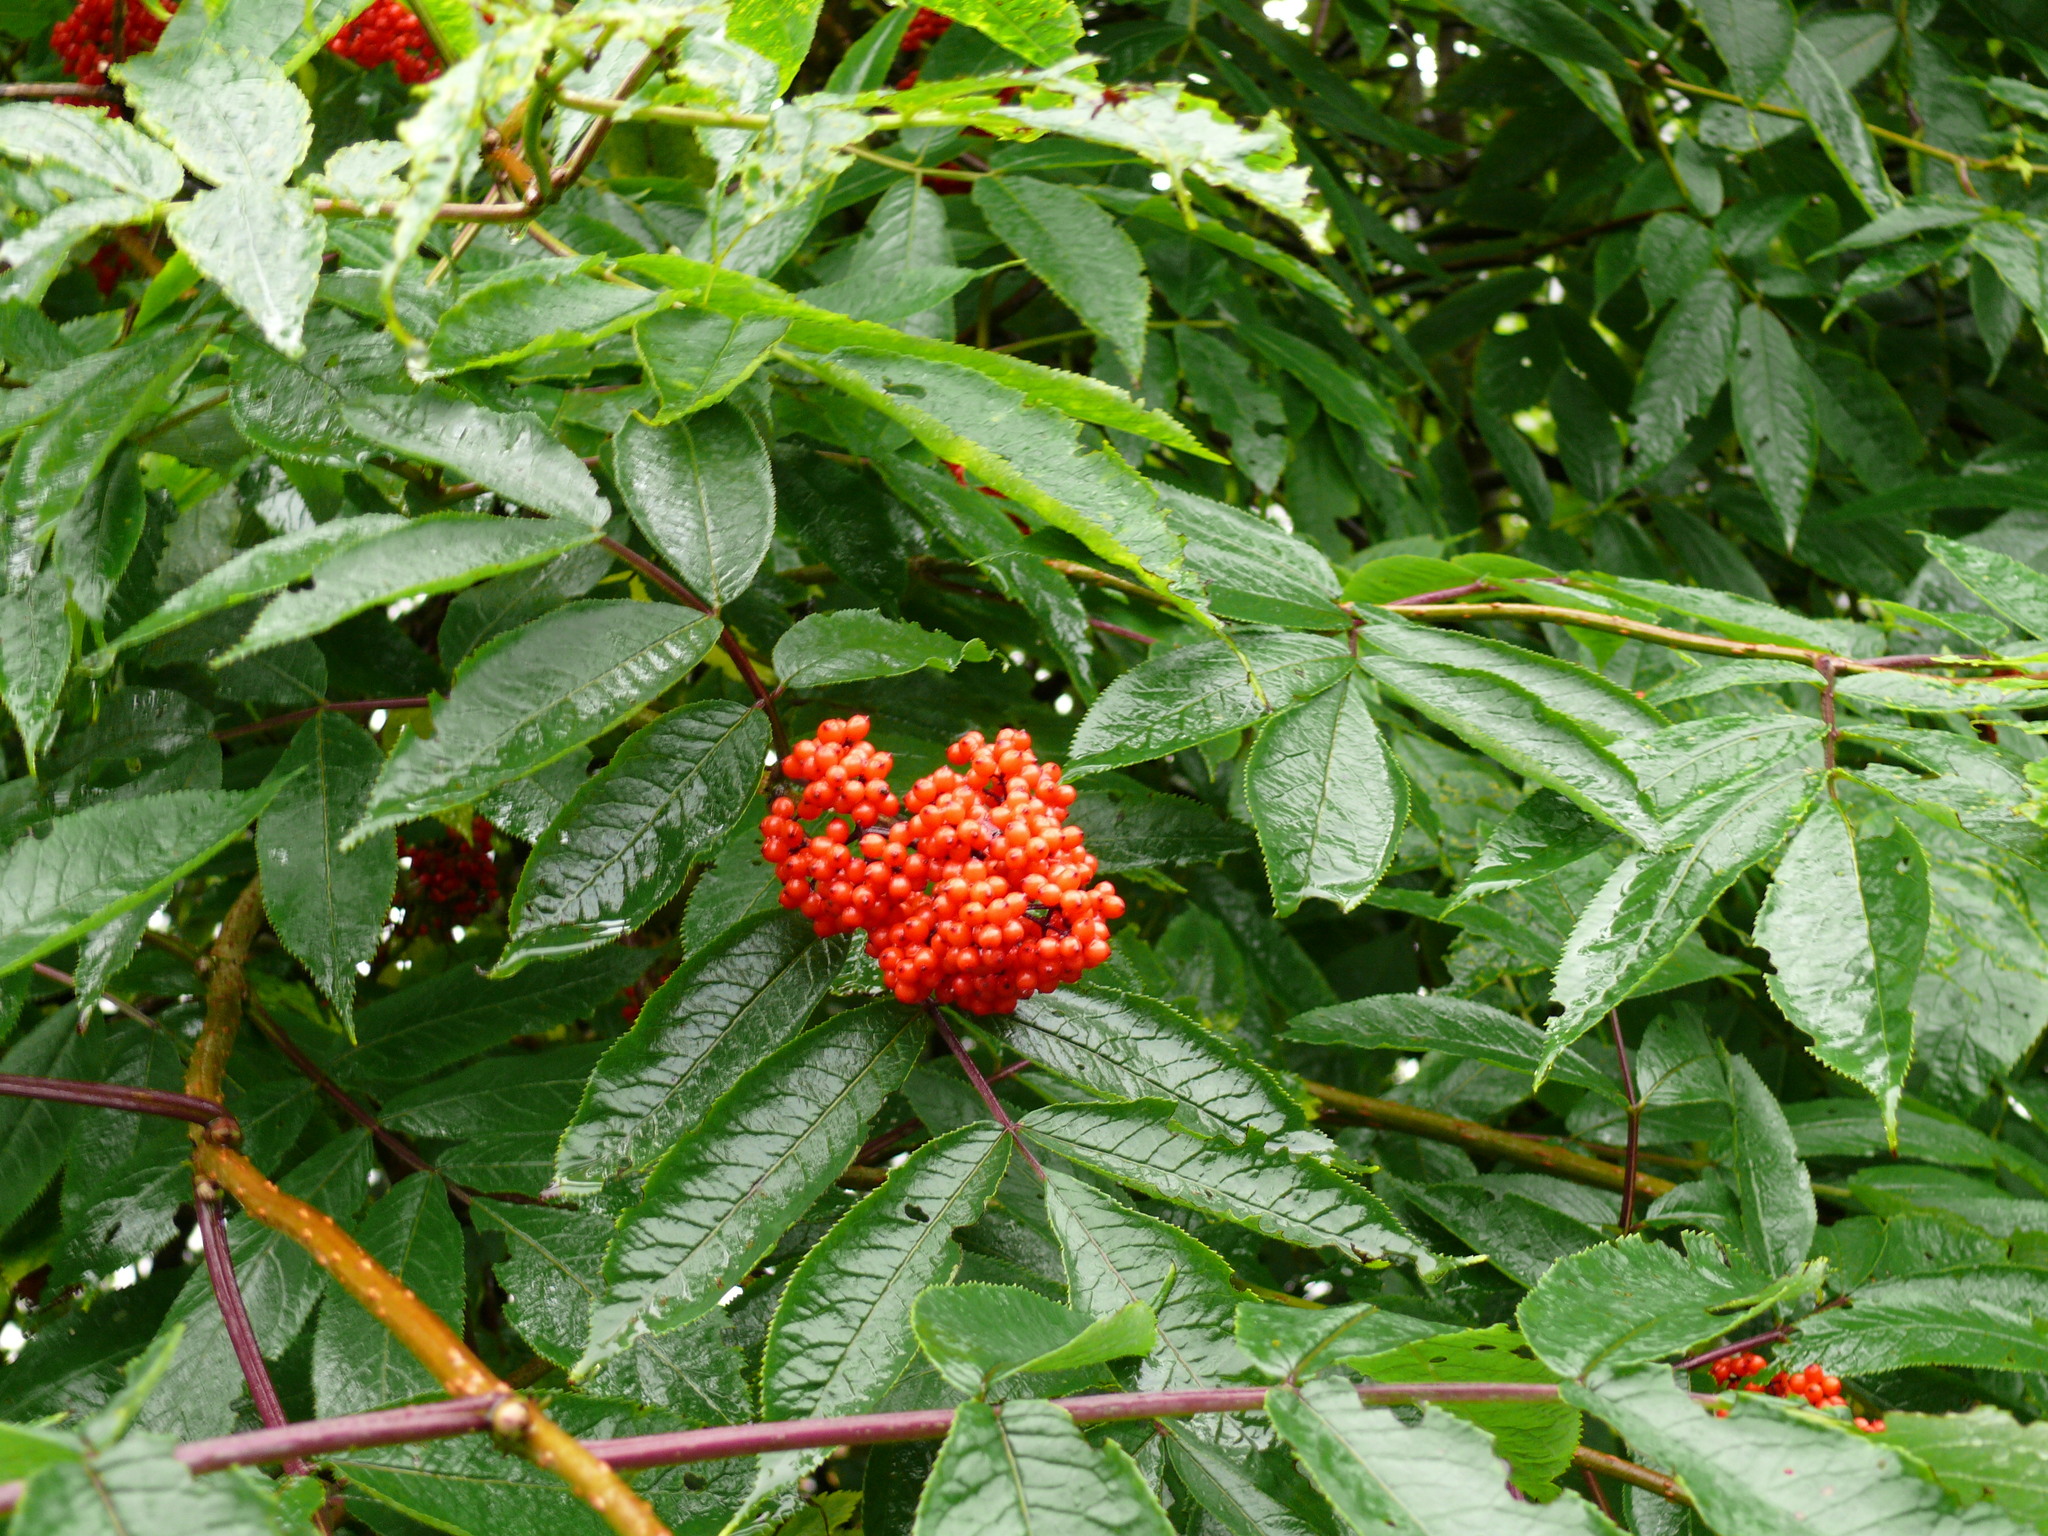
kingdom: Plantae
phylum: Tracheophyta
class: Magnoliopsida
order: Dipsacales
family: Viburnaceae
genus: Sambucus
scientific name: Sambucus racemosa
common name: Red-berried elder
